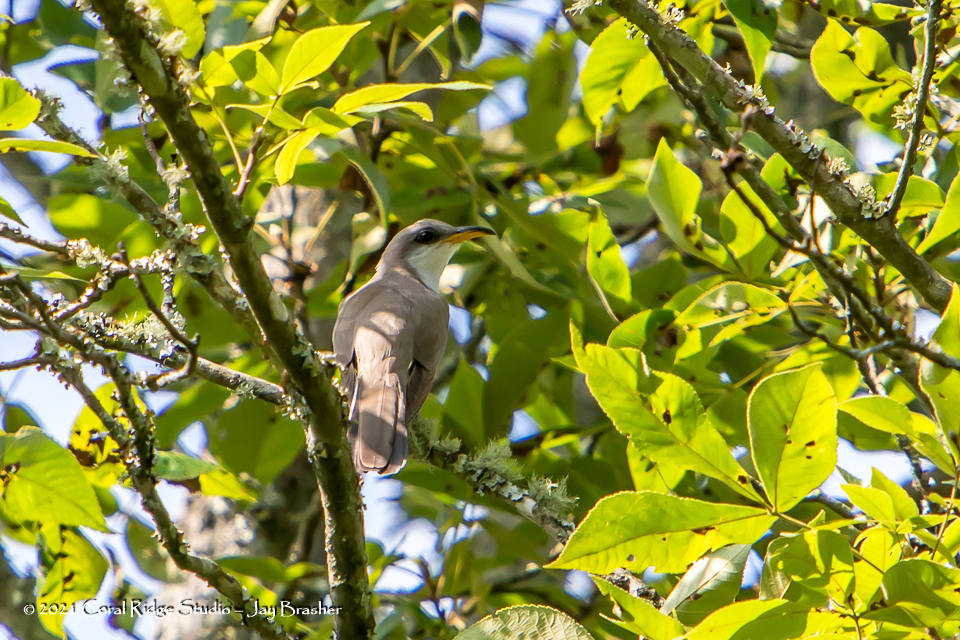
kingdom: Animalia
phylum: Chordata
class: Aves
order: Cuculiformes
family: Cuculidae
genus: Coccyzus
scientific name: Coccyzus americanus
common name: Yellow-billed cuckoo
